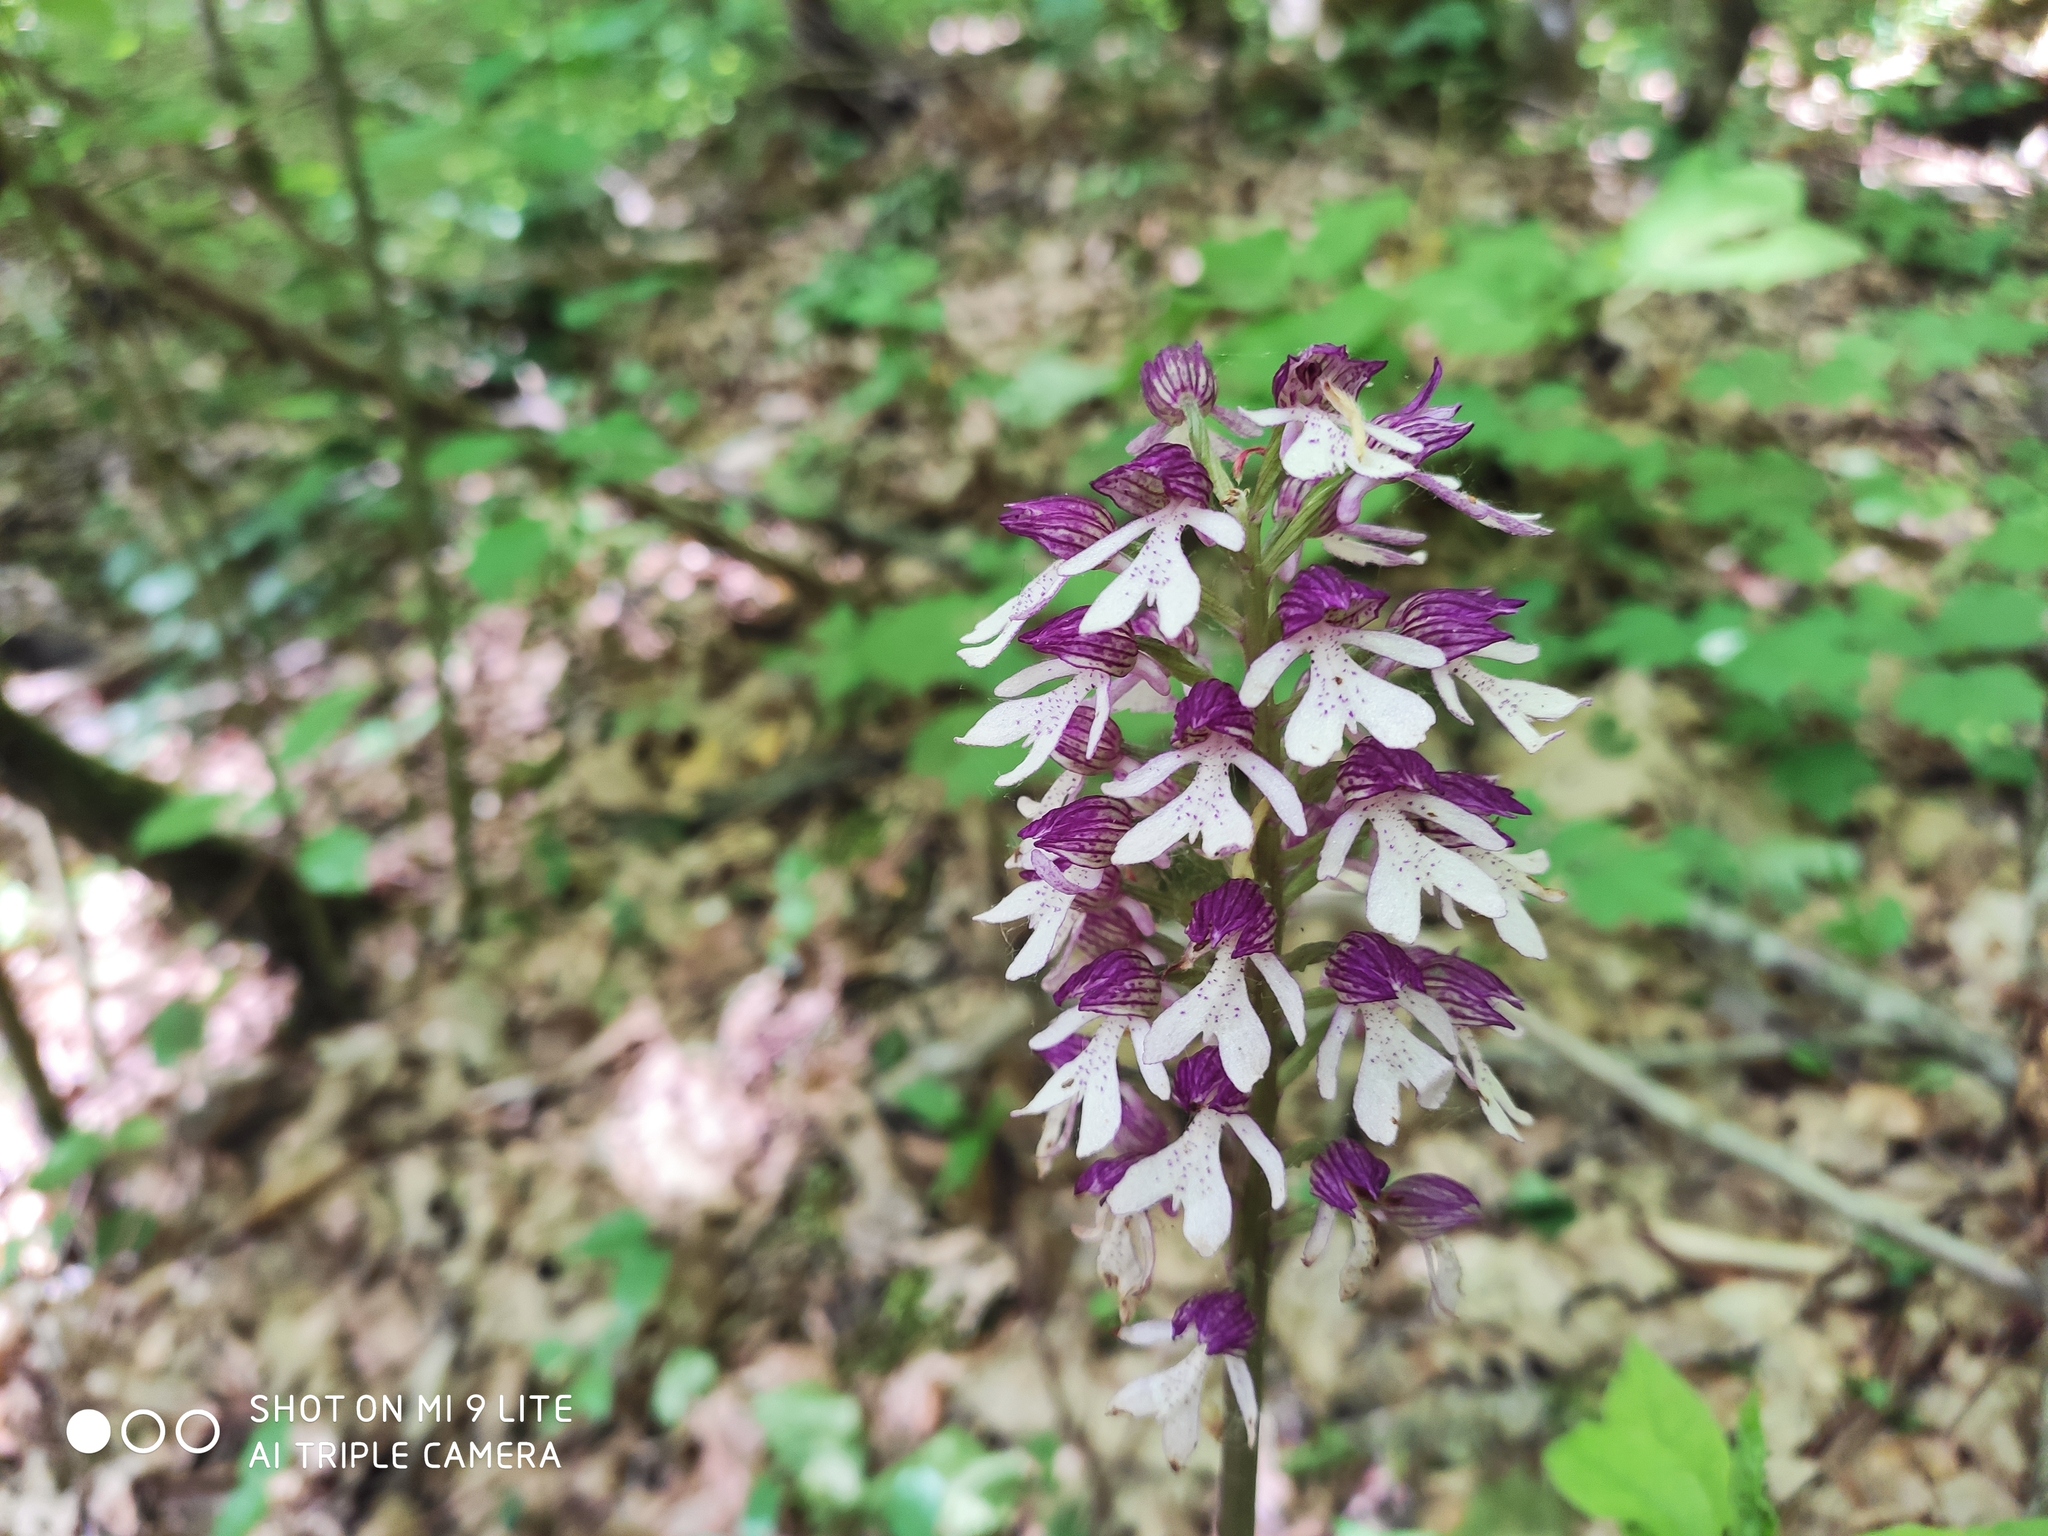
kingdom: Plantae
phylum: Tracheophyta
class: Liliopsida
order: Asparagales
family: Orchidaceae
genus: Orchis
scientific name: Orchis purpurea
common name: Lady orchid
